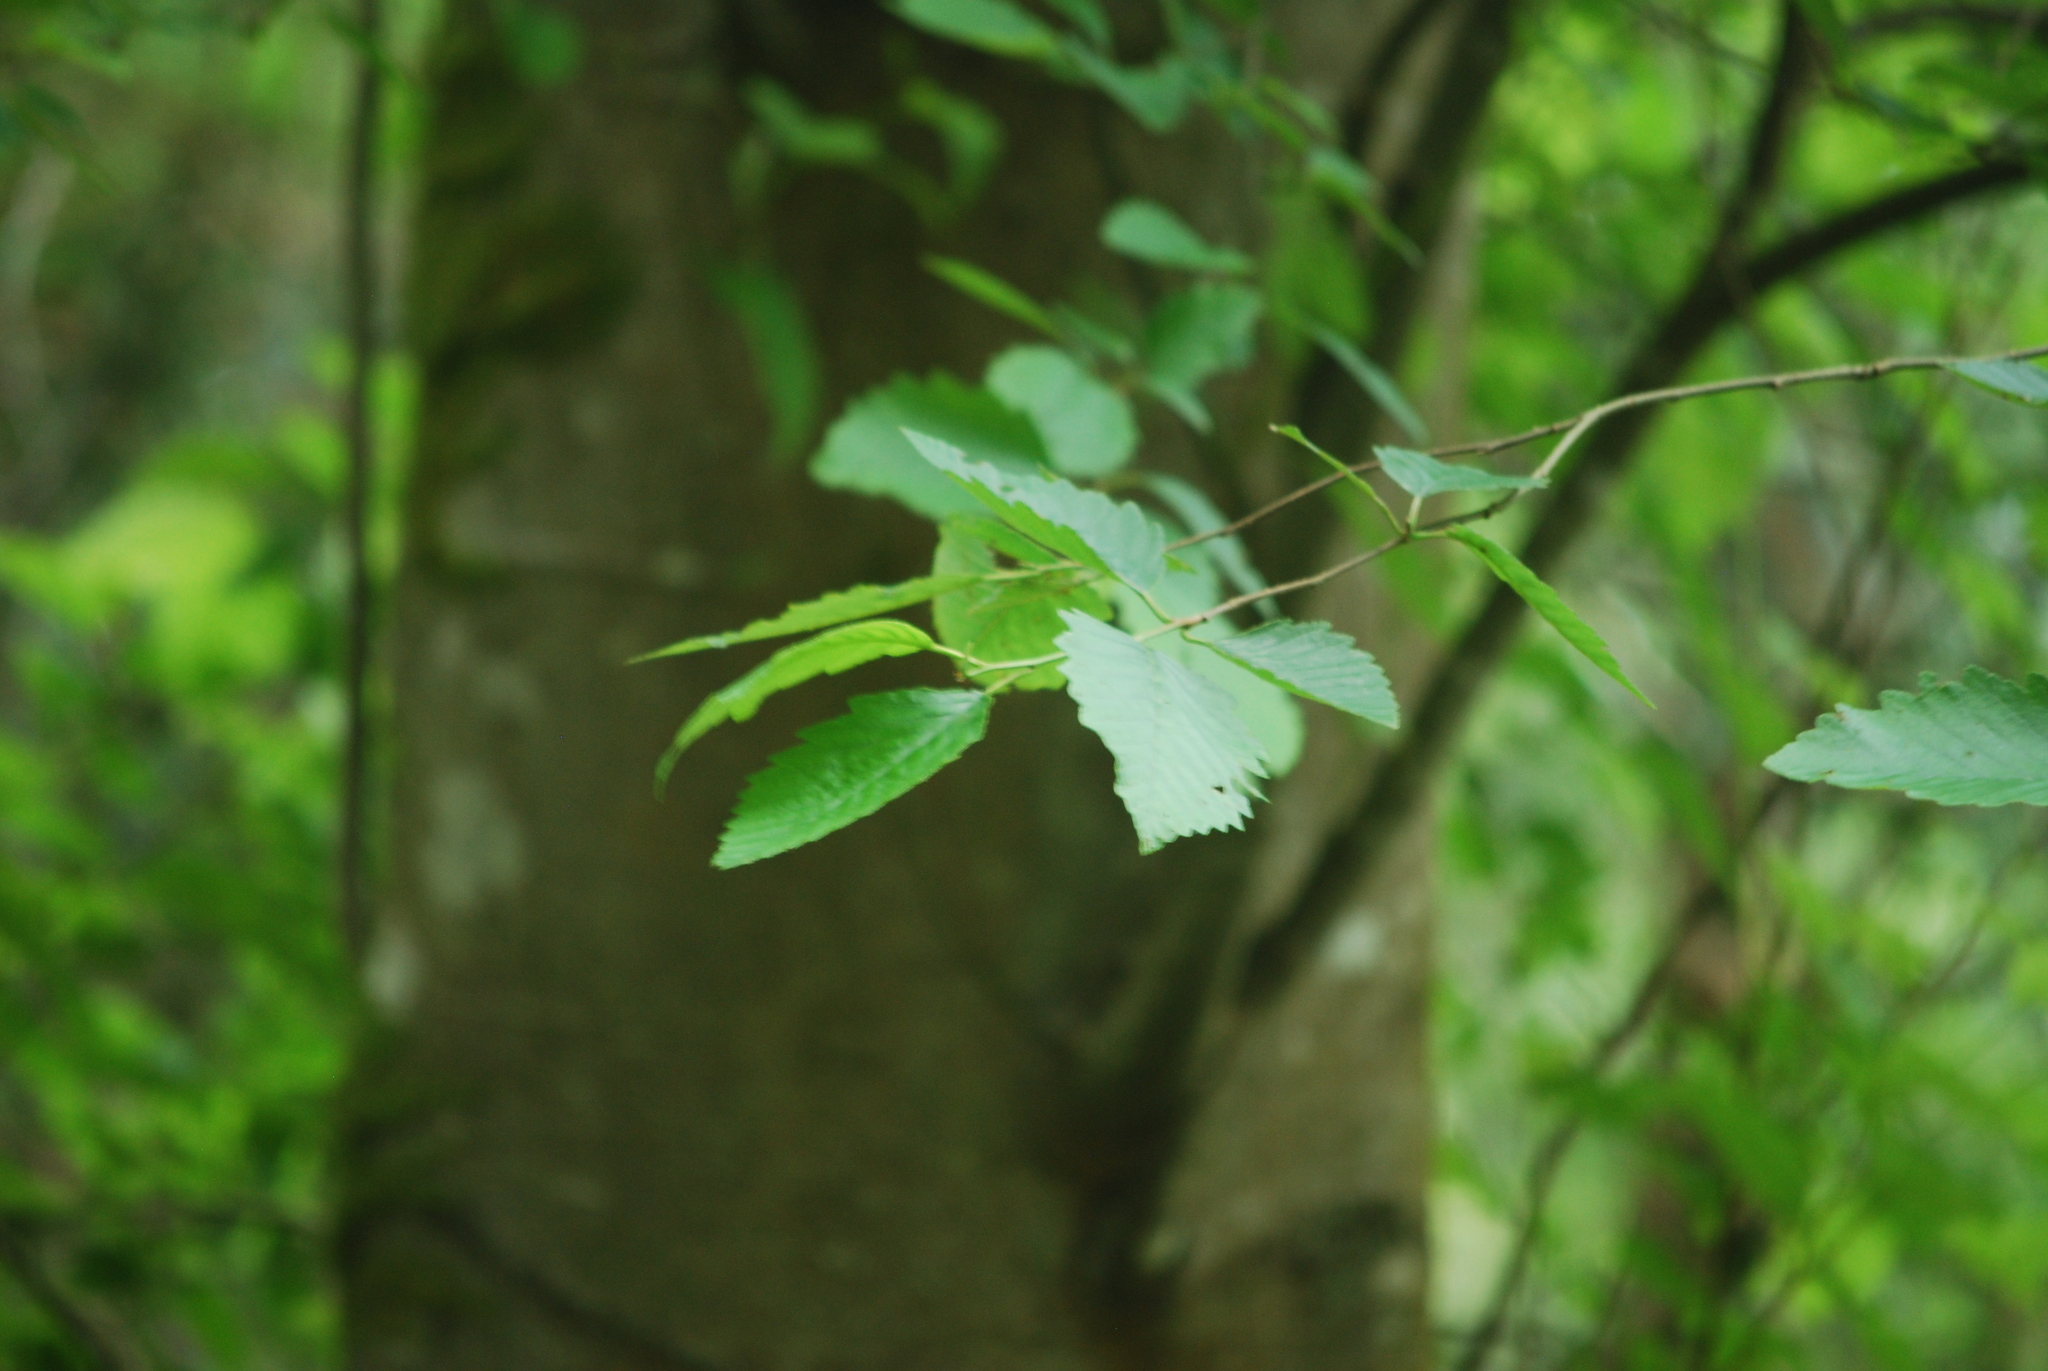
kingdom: Plantae
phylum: Tracheophyta
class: Magnoliopsida
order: Fagales
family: Betulaceae
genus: Alnus
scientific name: Alnus rubra
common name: Red alder
